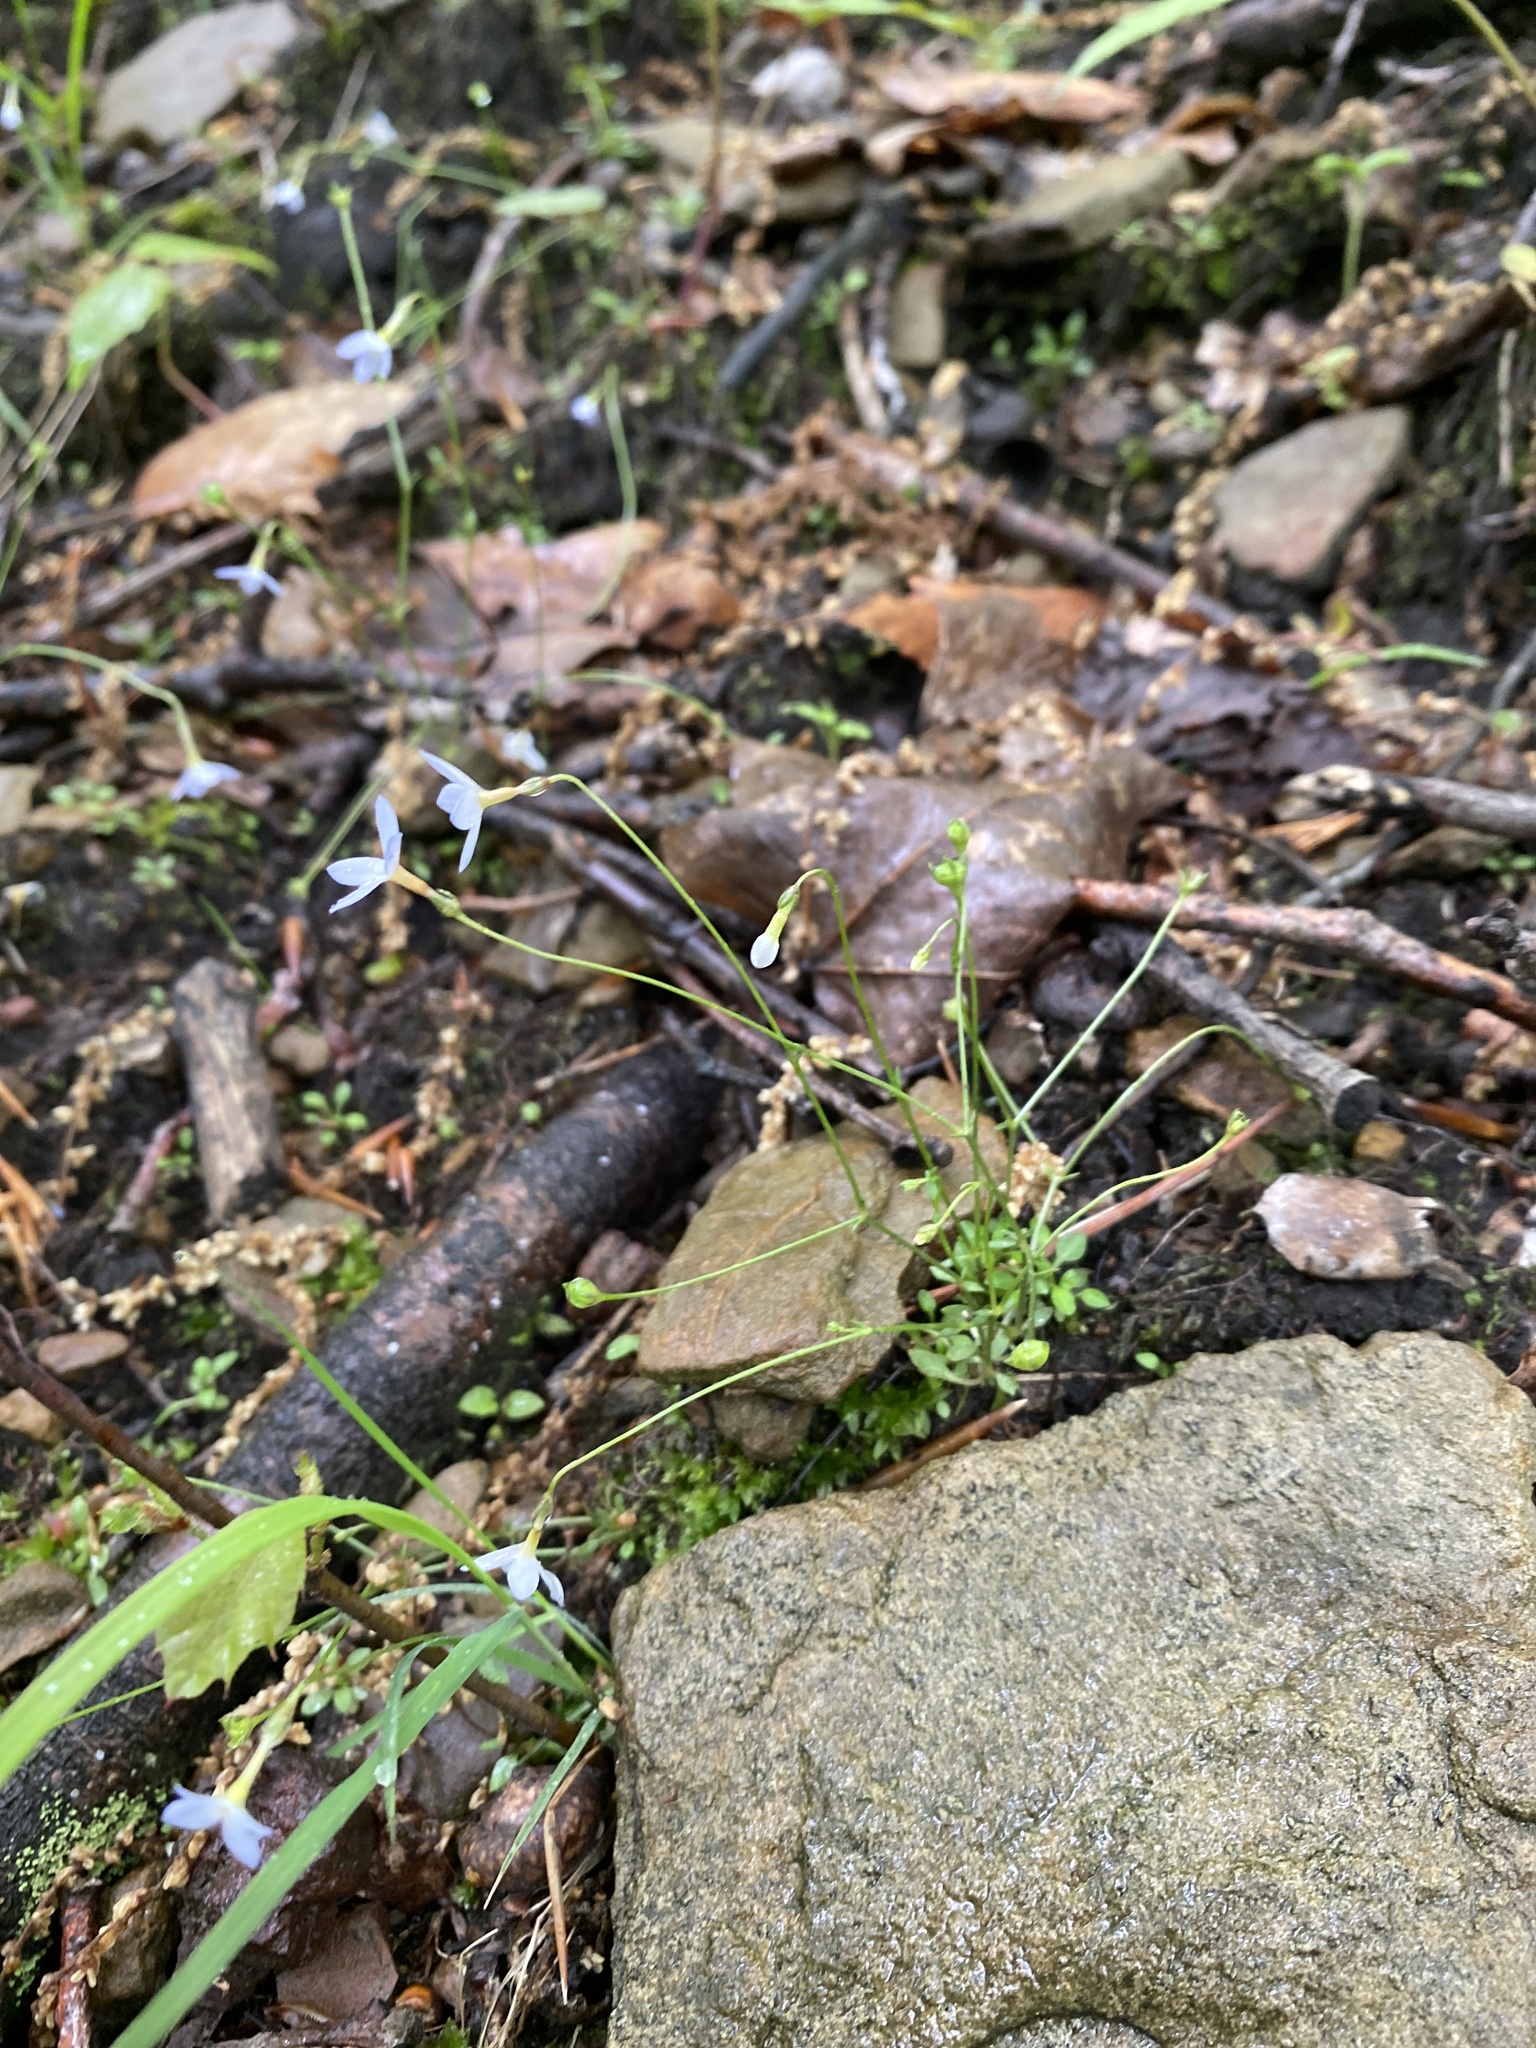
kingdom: Plantae
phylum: Tracheophyta
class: Magnoliopsida
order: Gentianales
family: Rubiaceae
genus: Houstonia
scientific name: Houstonia caerulea
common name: Bluets
